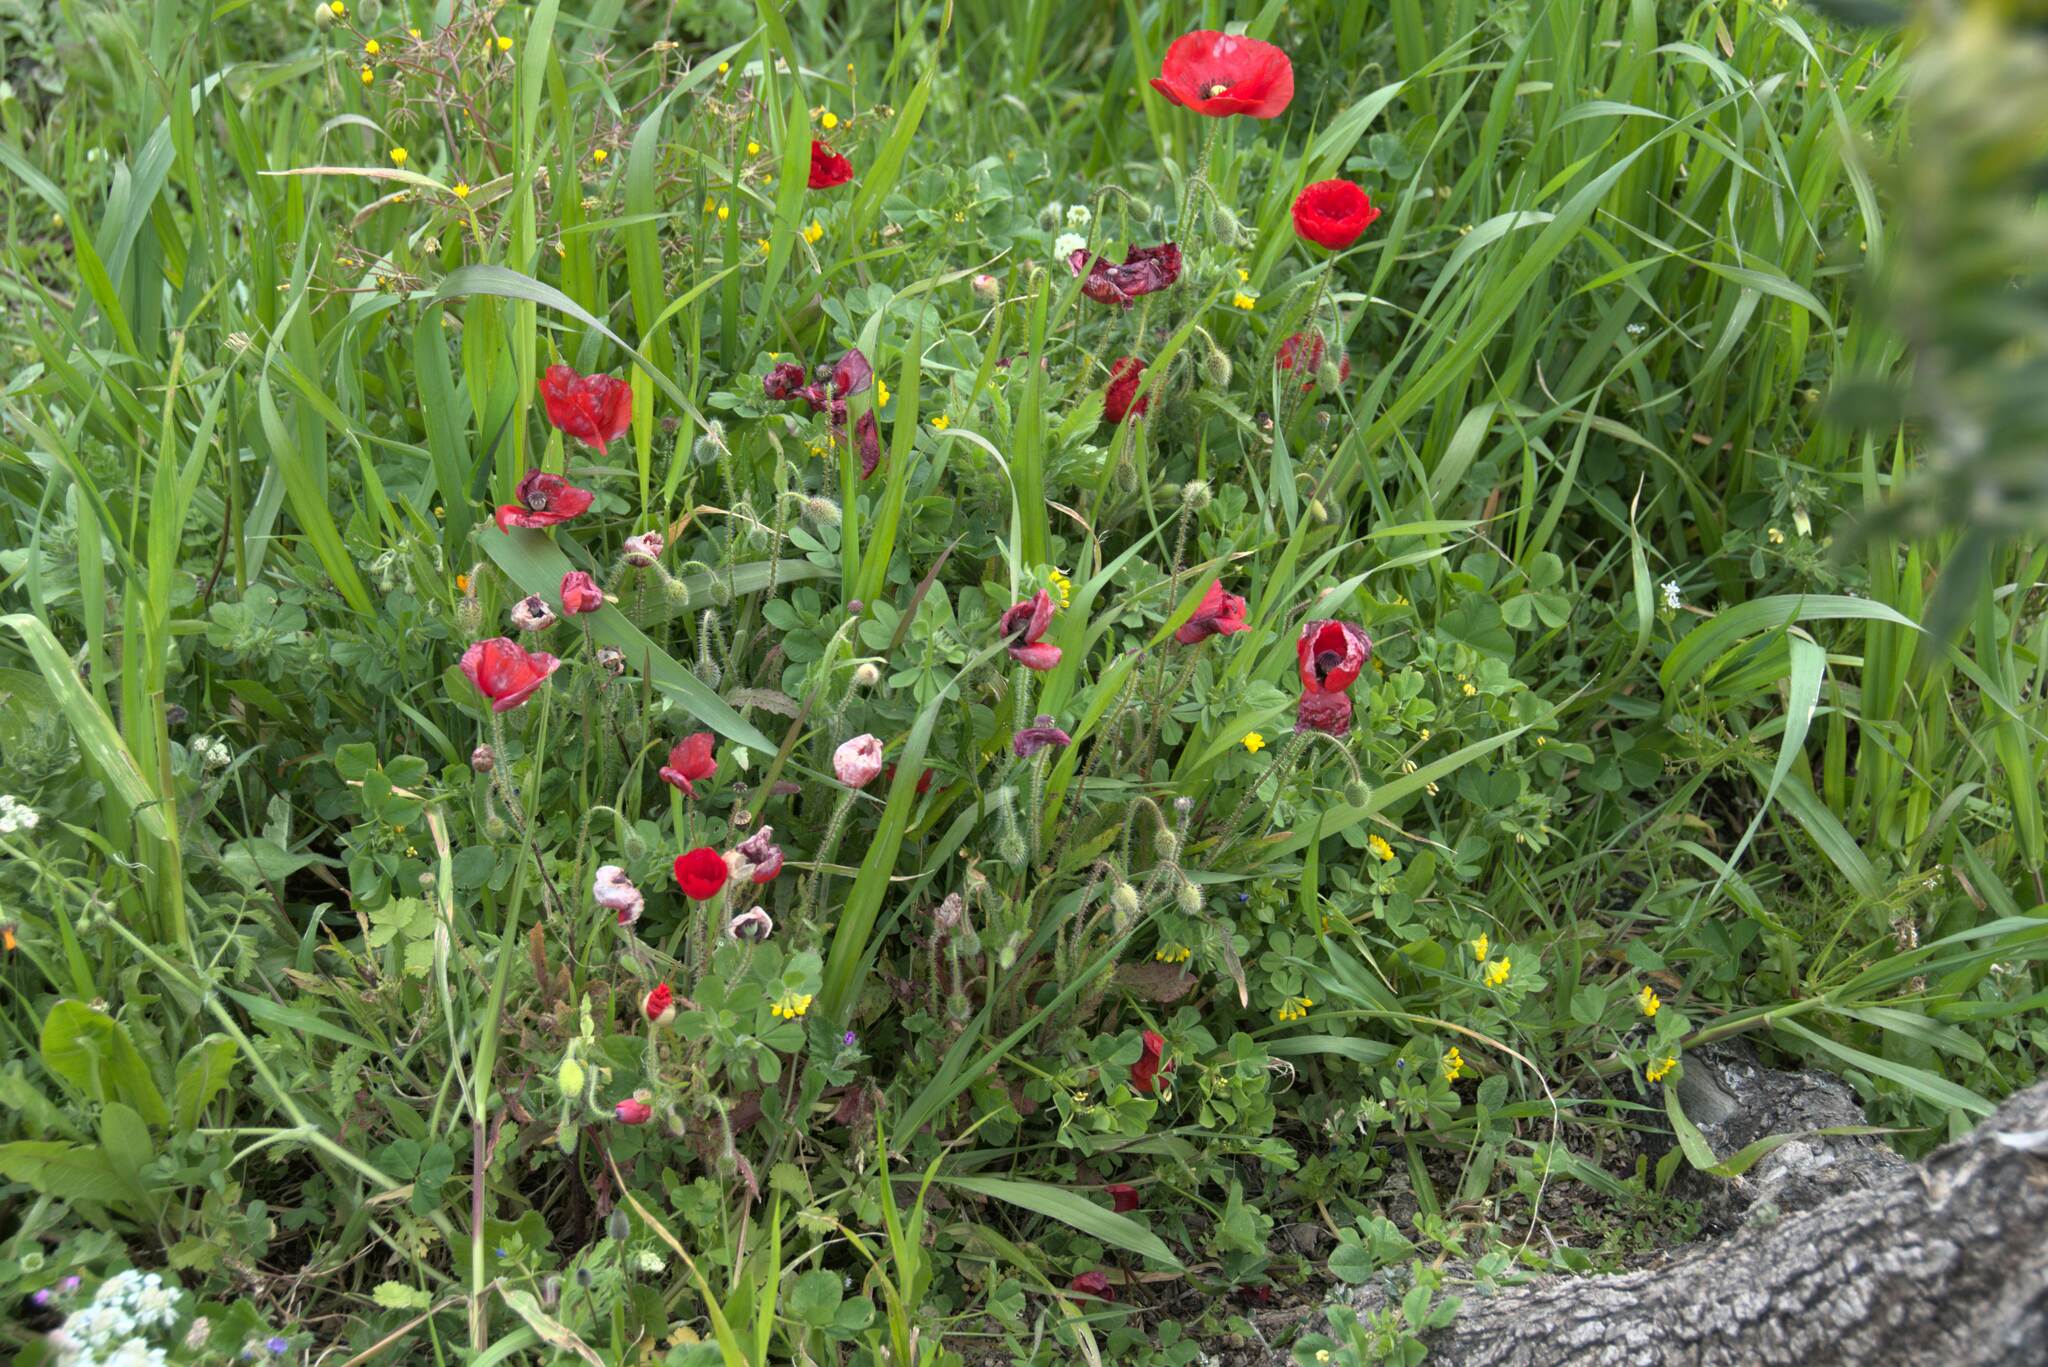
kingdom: Plantae
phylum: Tracheophyta
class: Magnoliopsida
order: Ranunculales
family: Papaveraceae
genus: Papaver
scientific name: Papaver rhoeas
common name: Corn poppy
